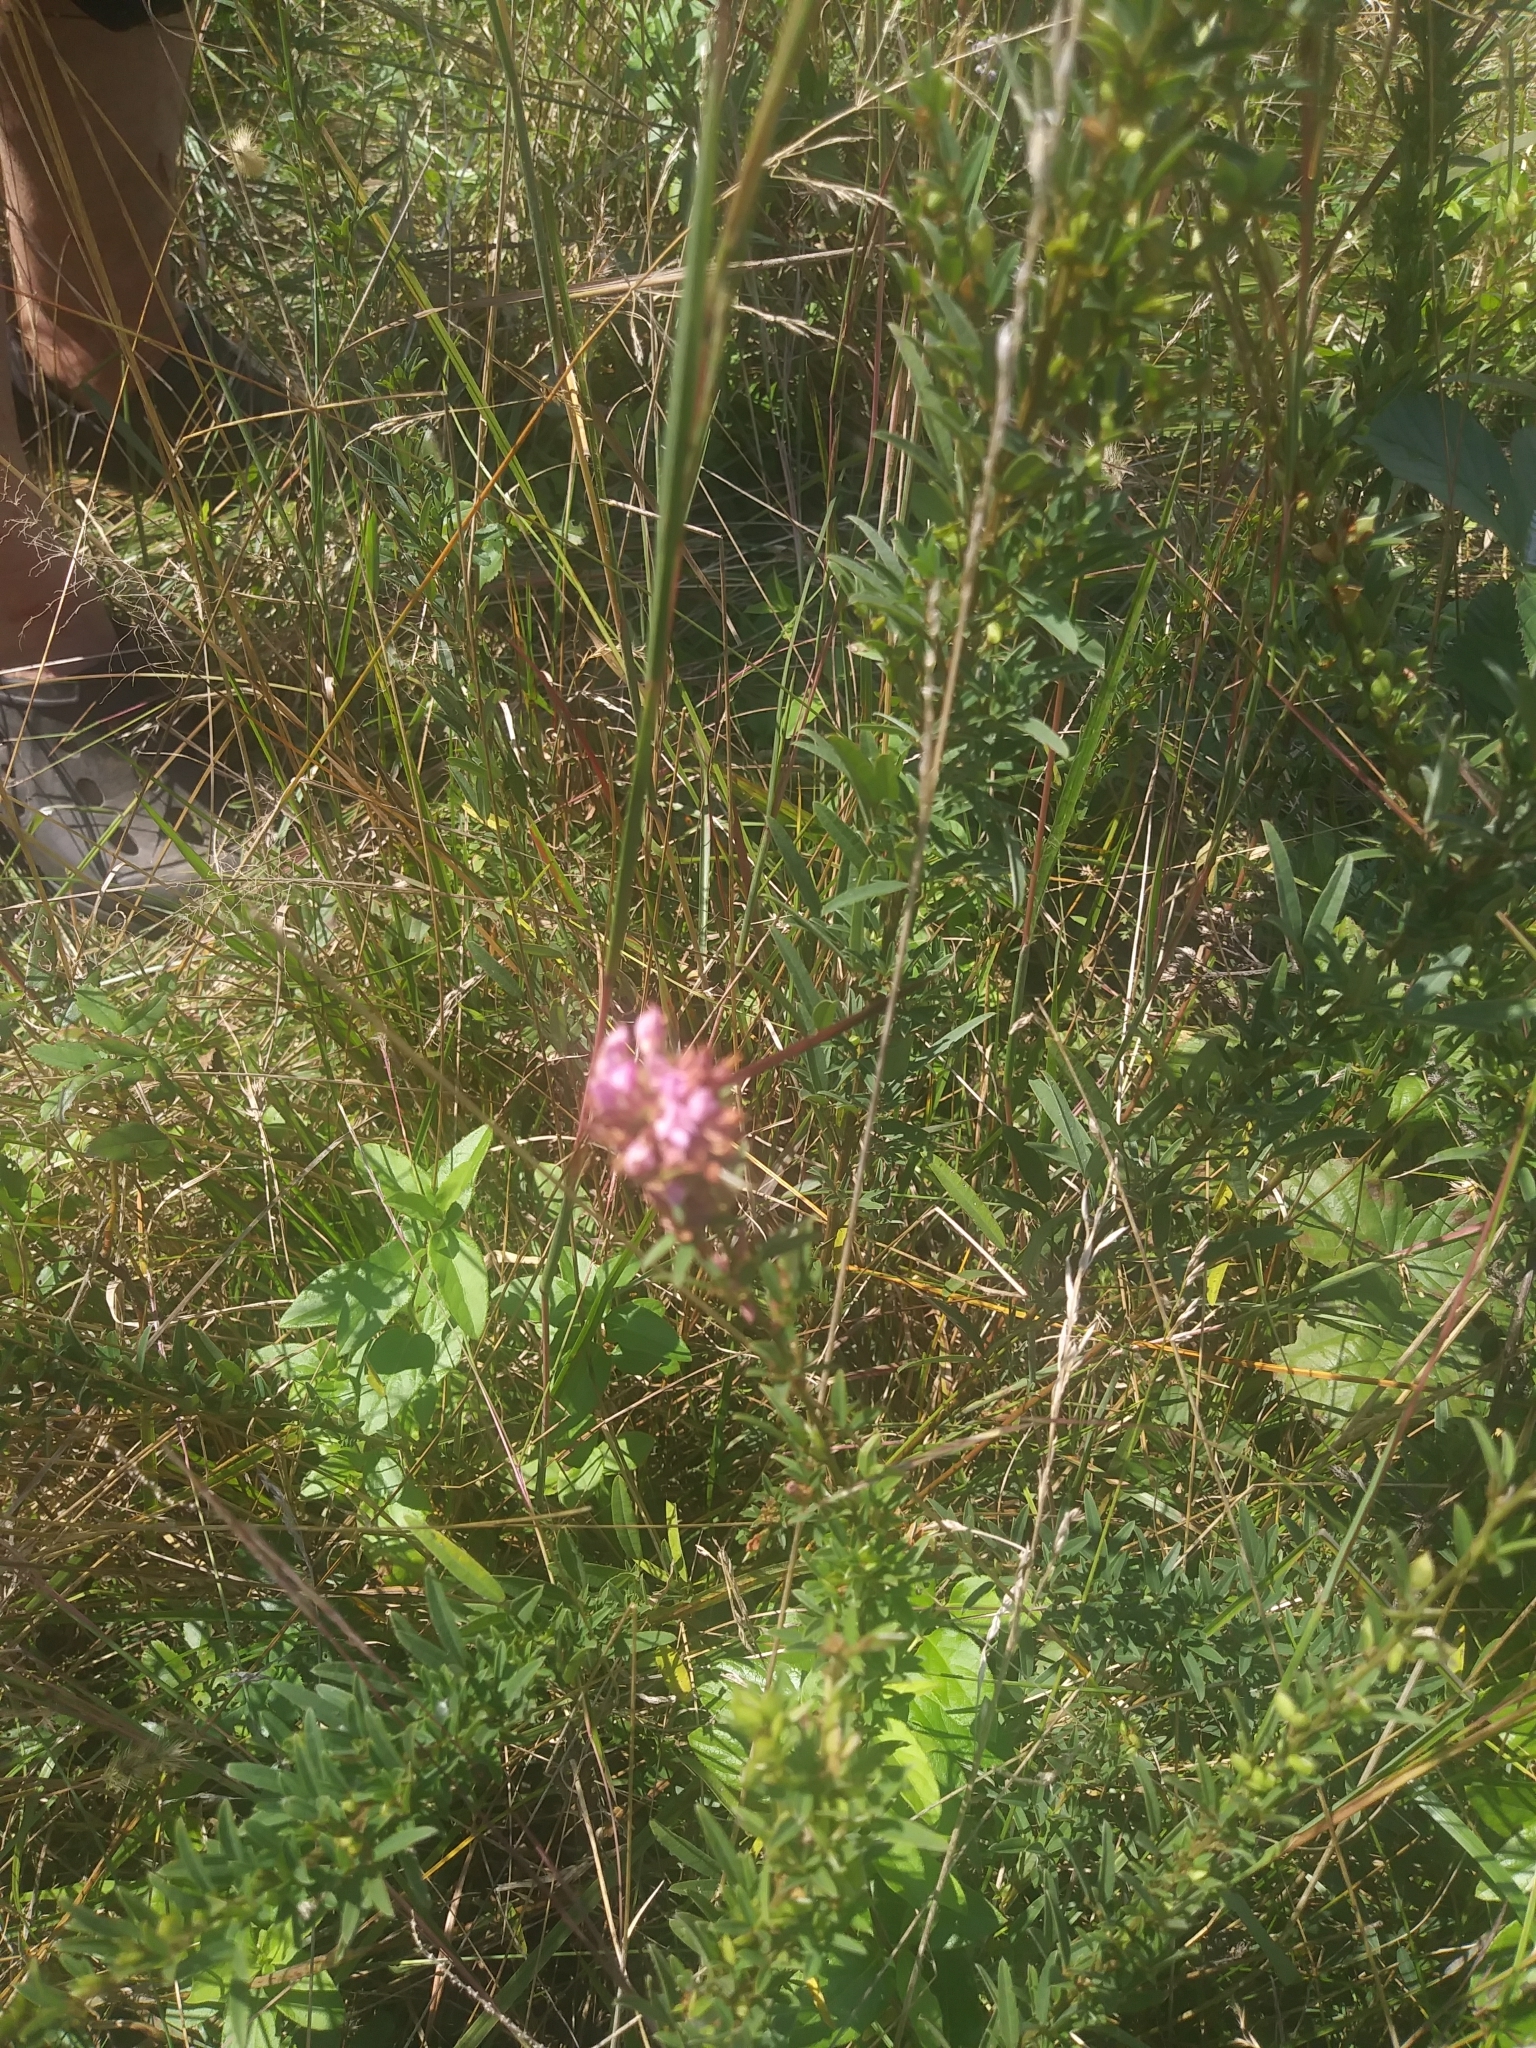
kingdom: Plantae
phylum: Tracheophyta
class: Magnoliopsida
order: Fabales
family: Fabaceae
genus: Lespedeza
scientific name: Lespedeza virginica
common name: Slender bush-clover
